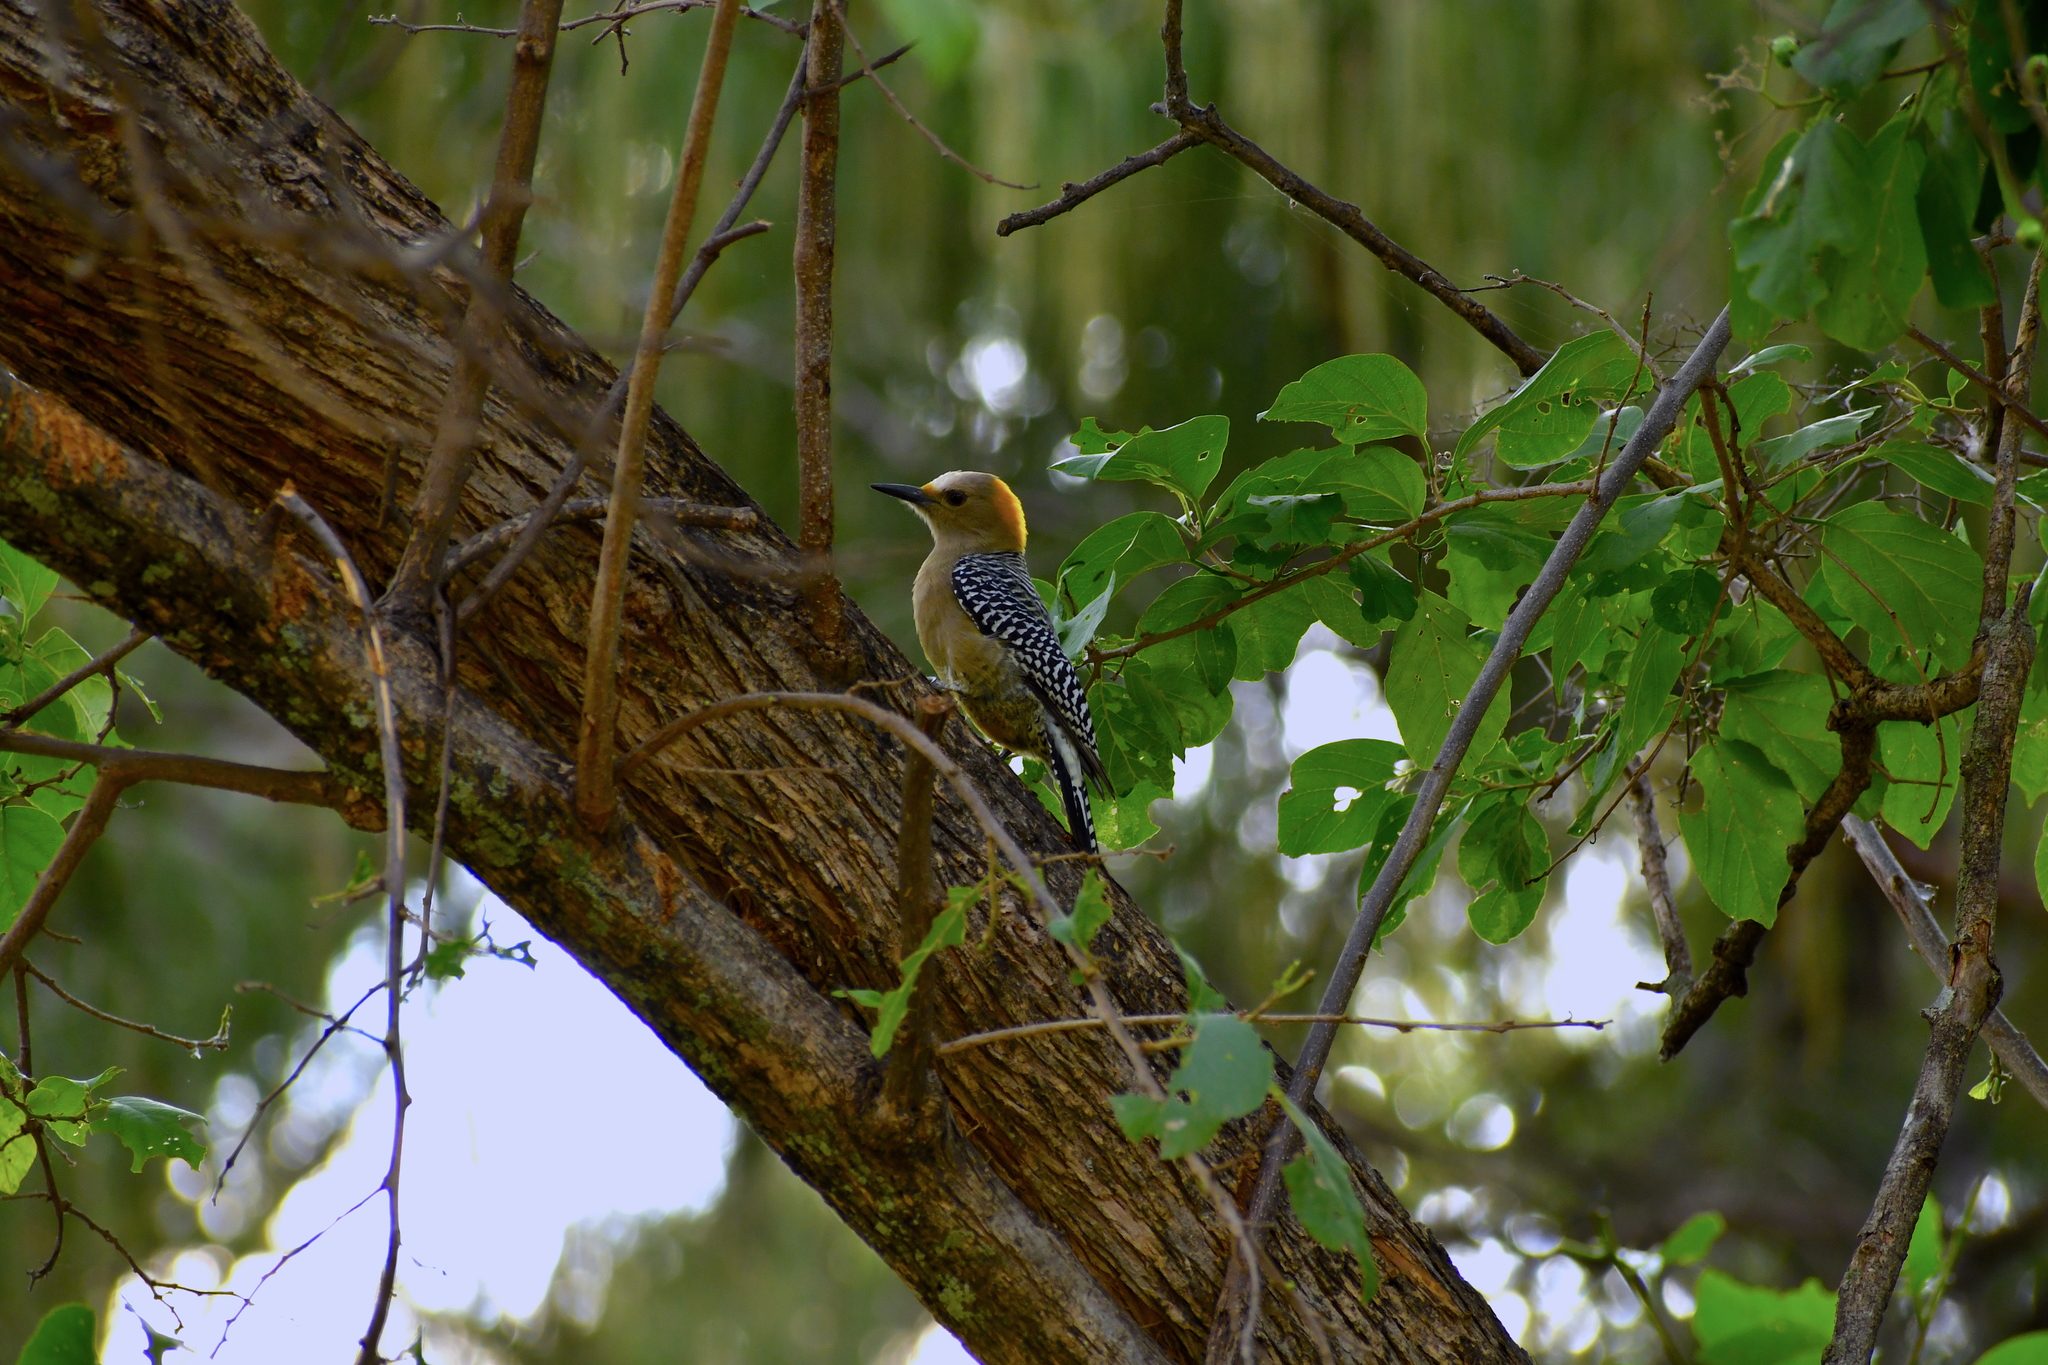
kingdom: Animalia
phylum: Chordata
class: Aves
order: Piciformes
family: Picidae
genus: Melanerpes
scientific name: Melanerpes aurifrons
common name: Golden-fronted woodpecker
